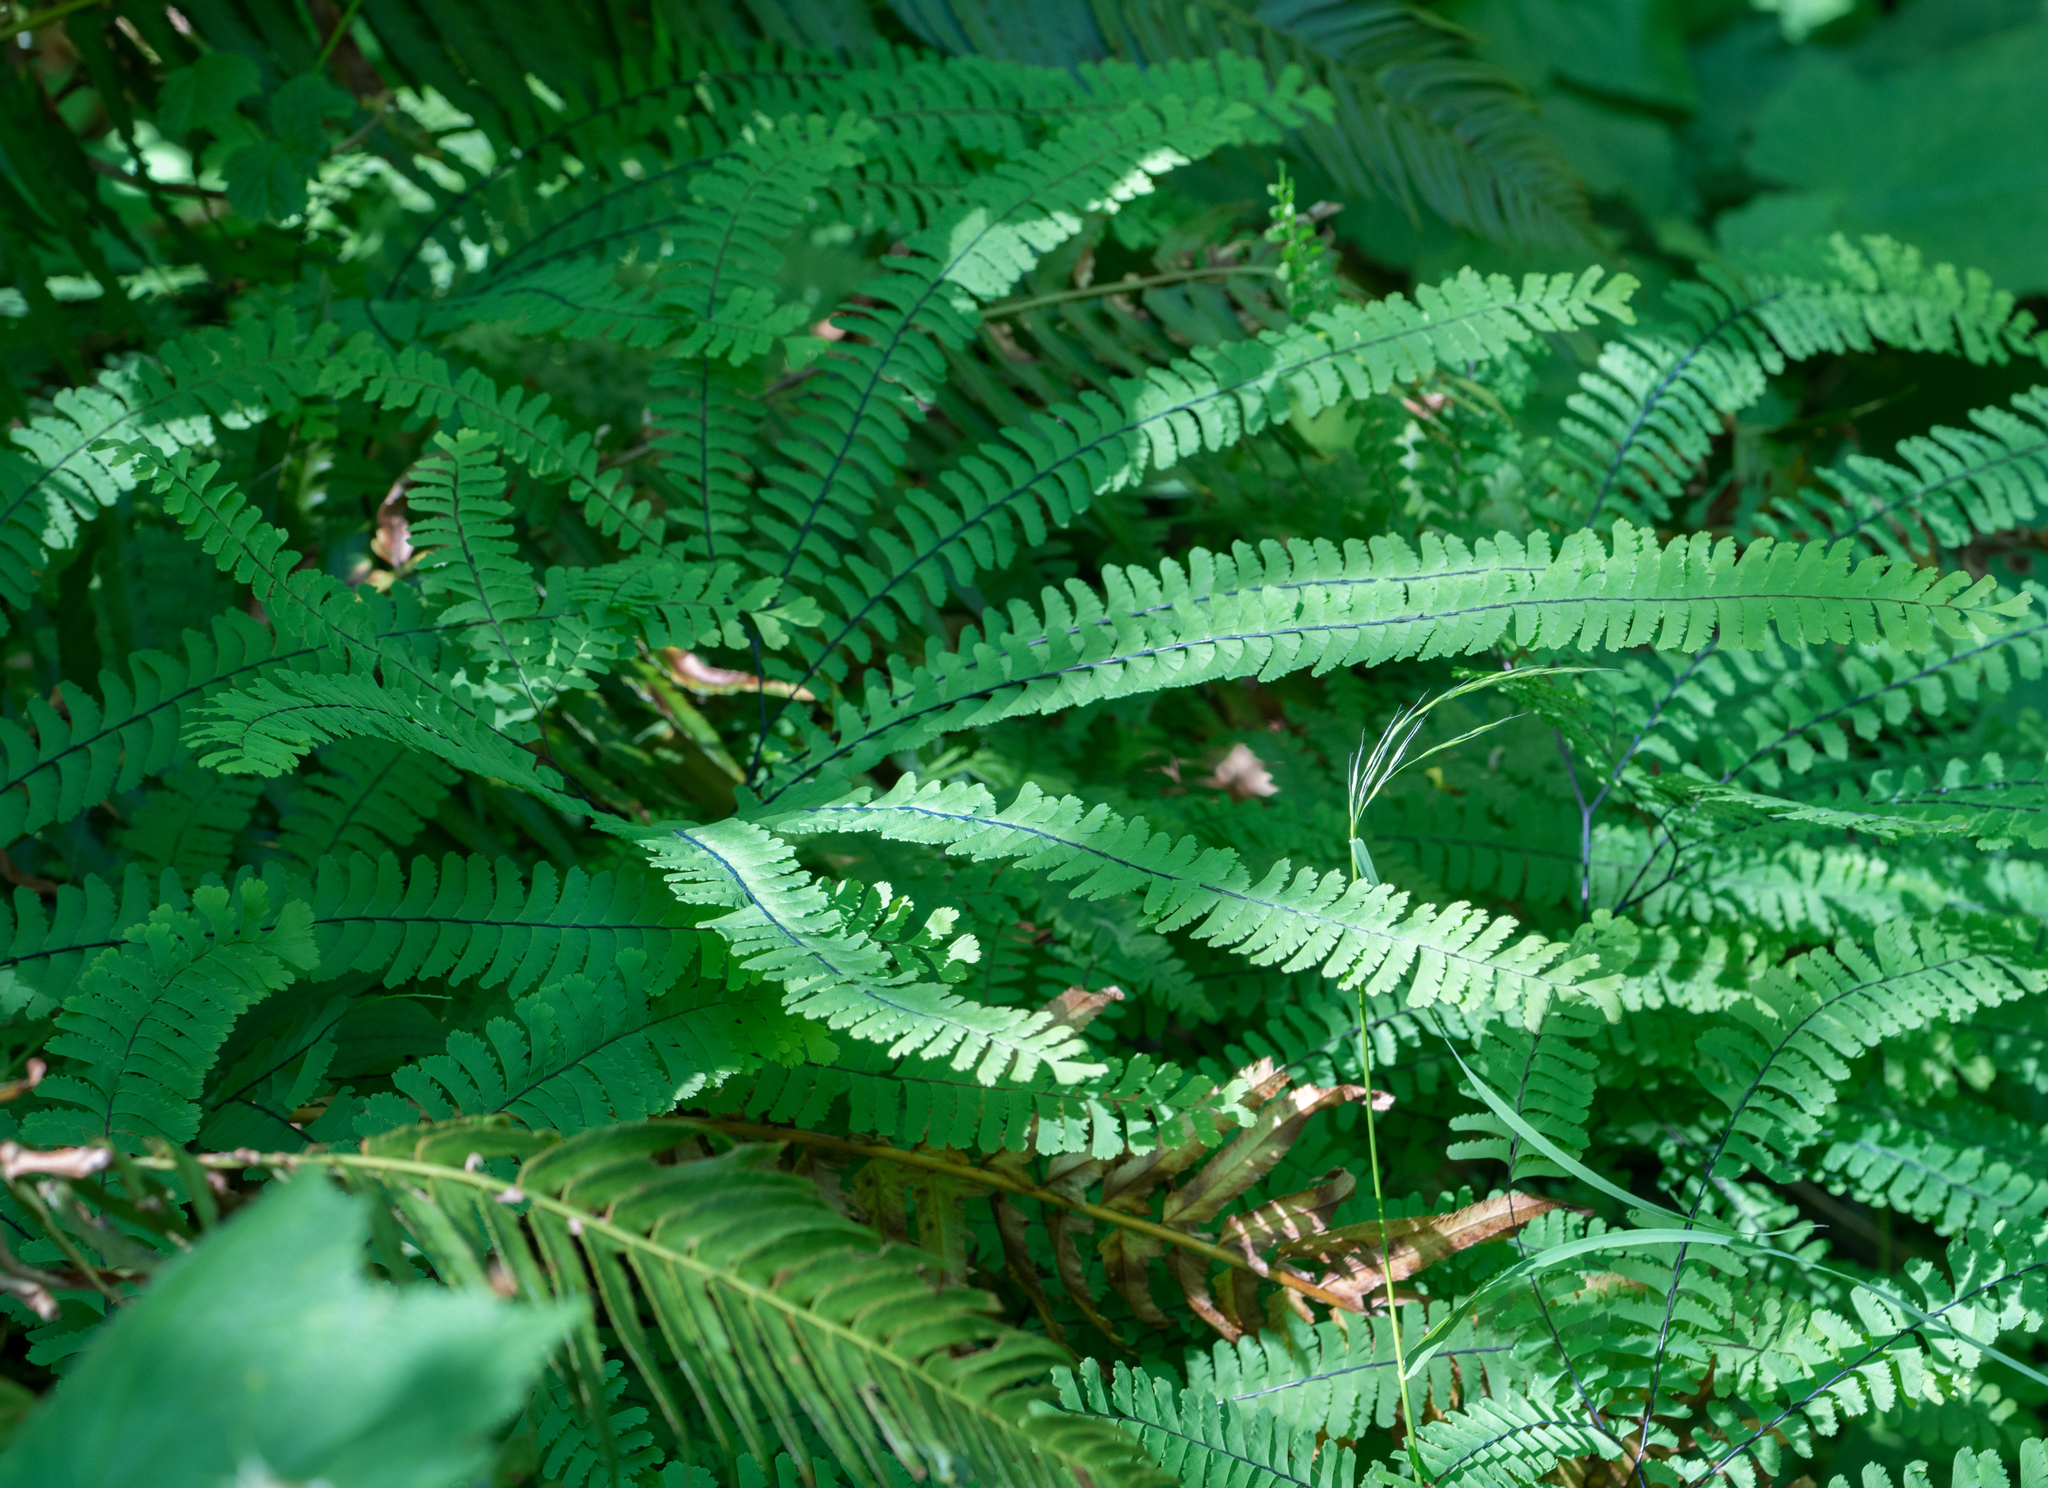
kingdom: Plantae
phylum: Tracheophyta
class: Polypodiopsida
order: Polypodiales
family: Pteridaceae
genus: Adiantum
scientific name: Adiantum aleuticum
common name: Aleutian maidenhair fern
